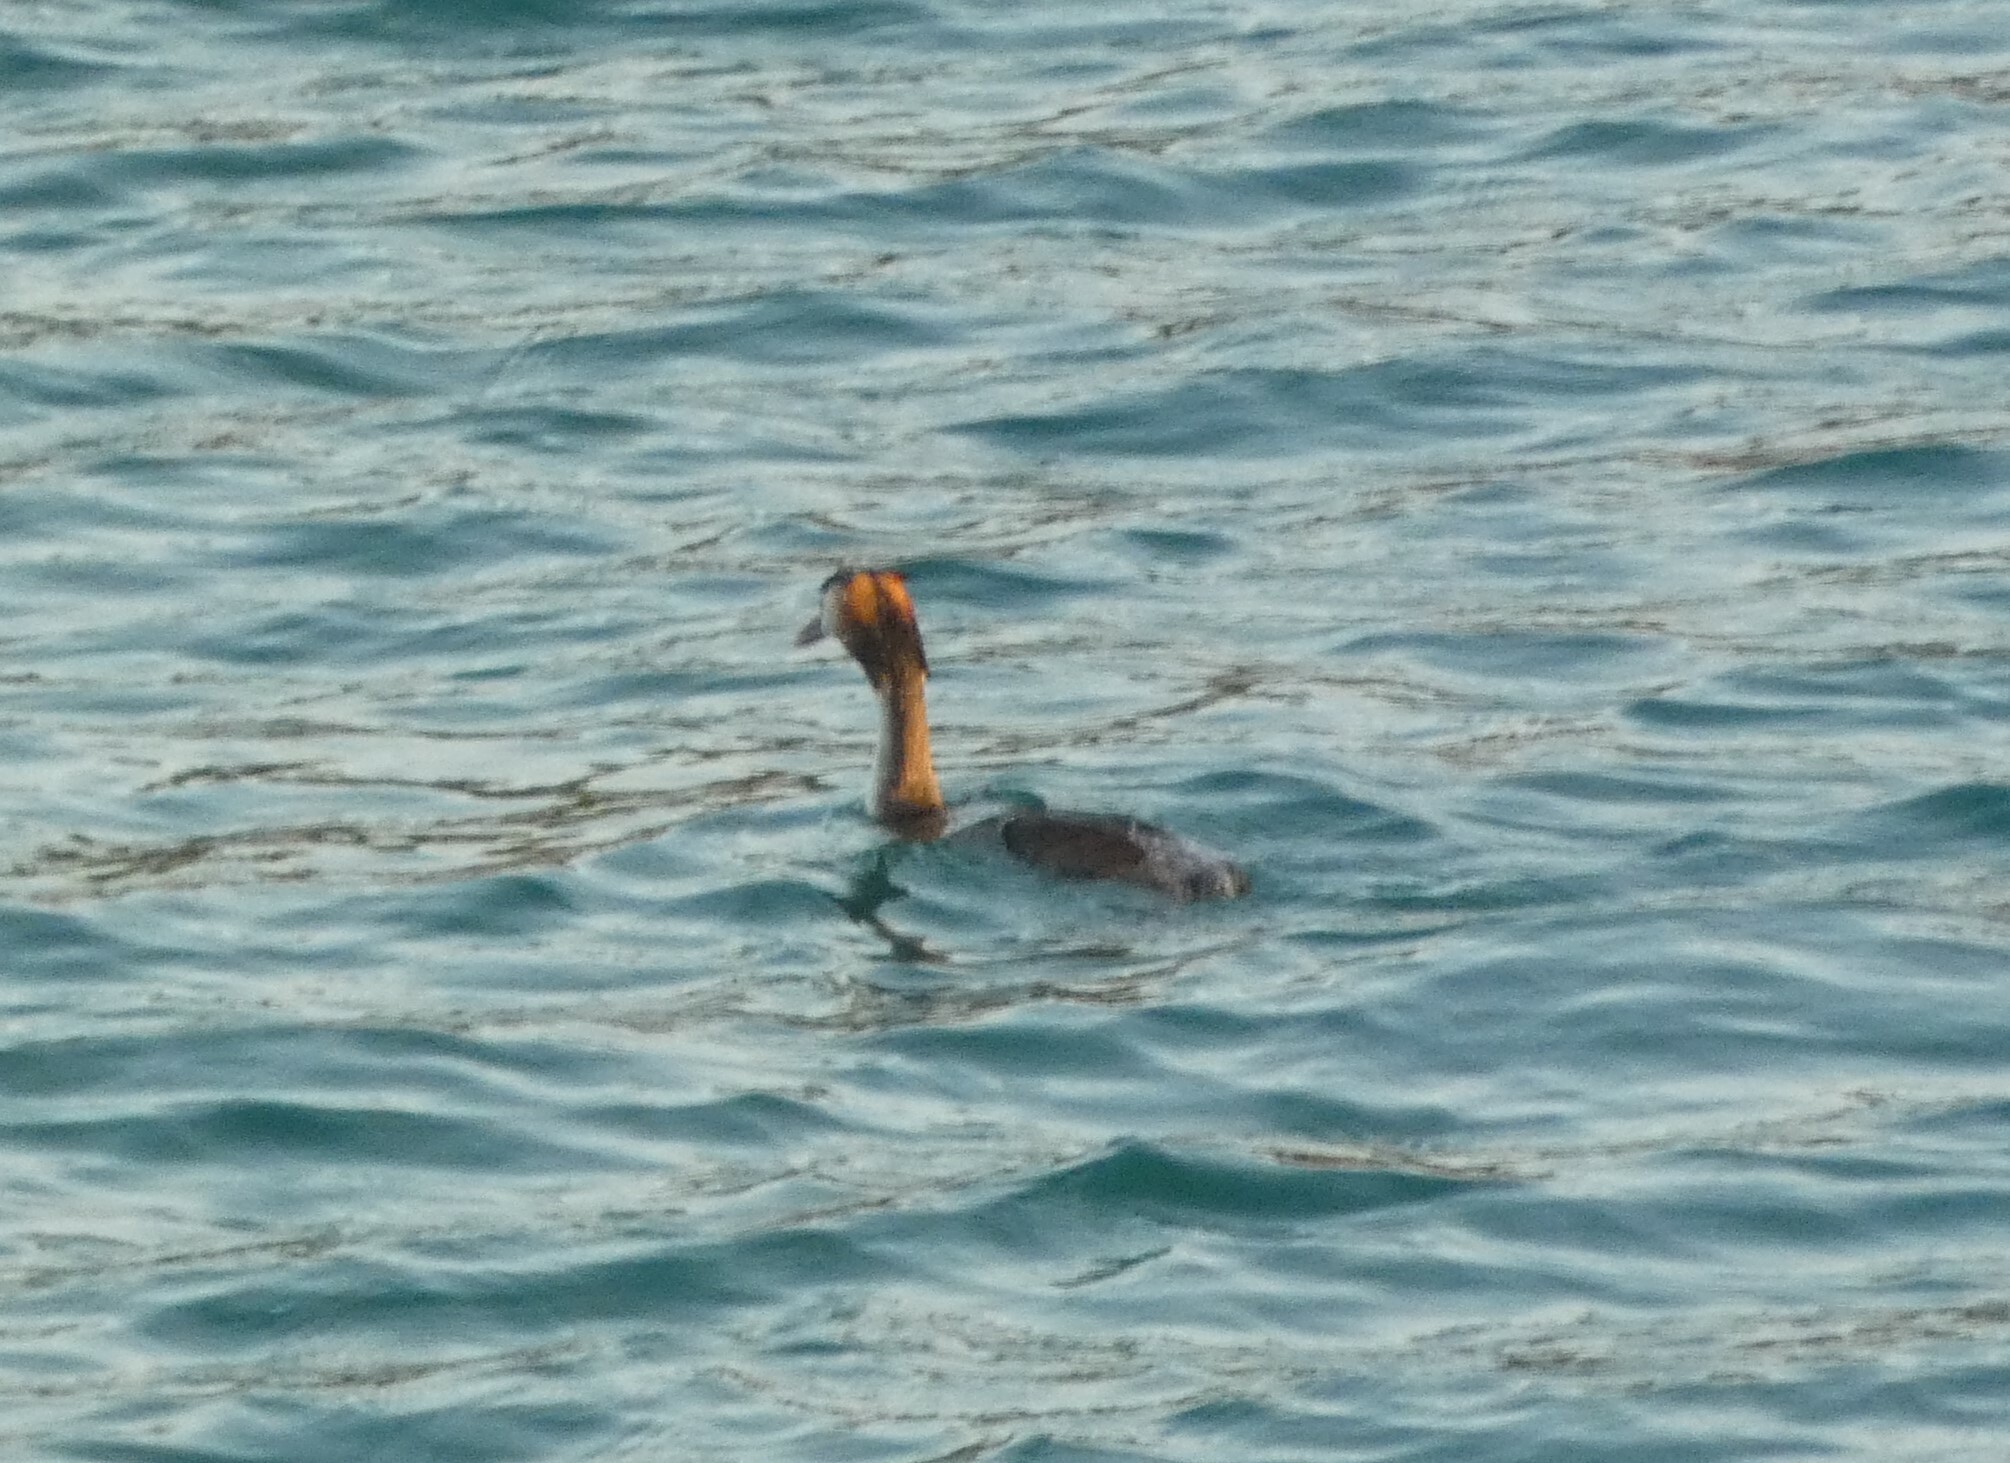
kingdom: Animalia
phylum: Chordata
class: Aves
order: Podicipediformes
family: Podicipedidae
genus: Podiceps
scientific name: Podiceps cristatus
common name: Great crested grebe
